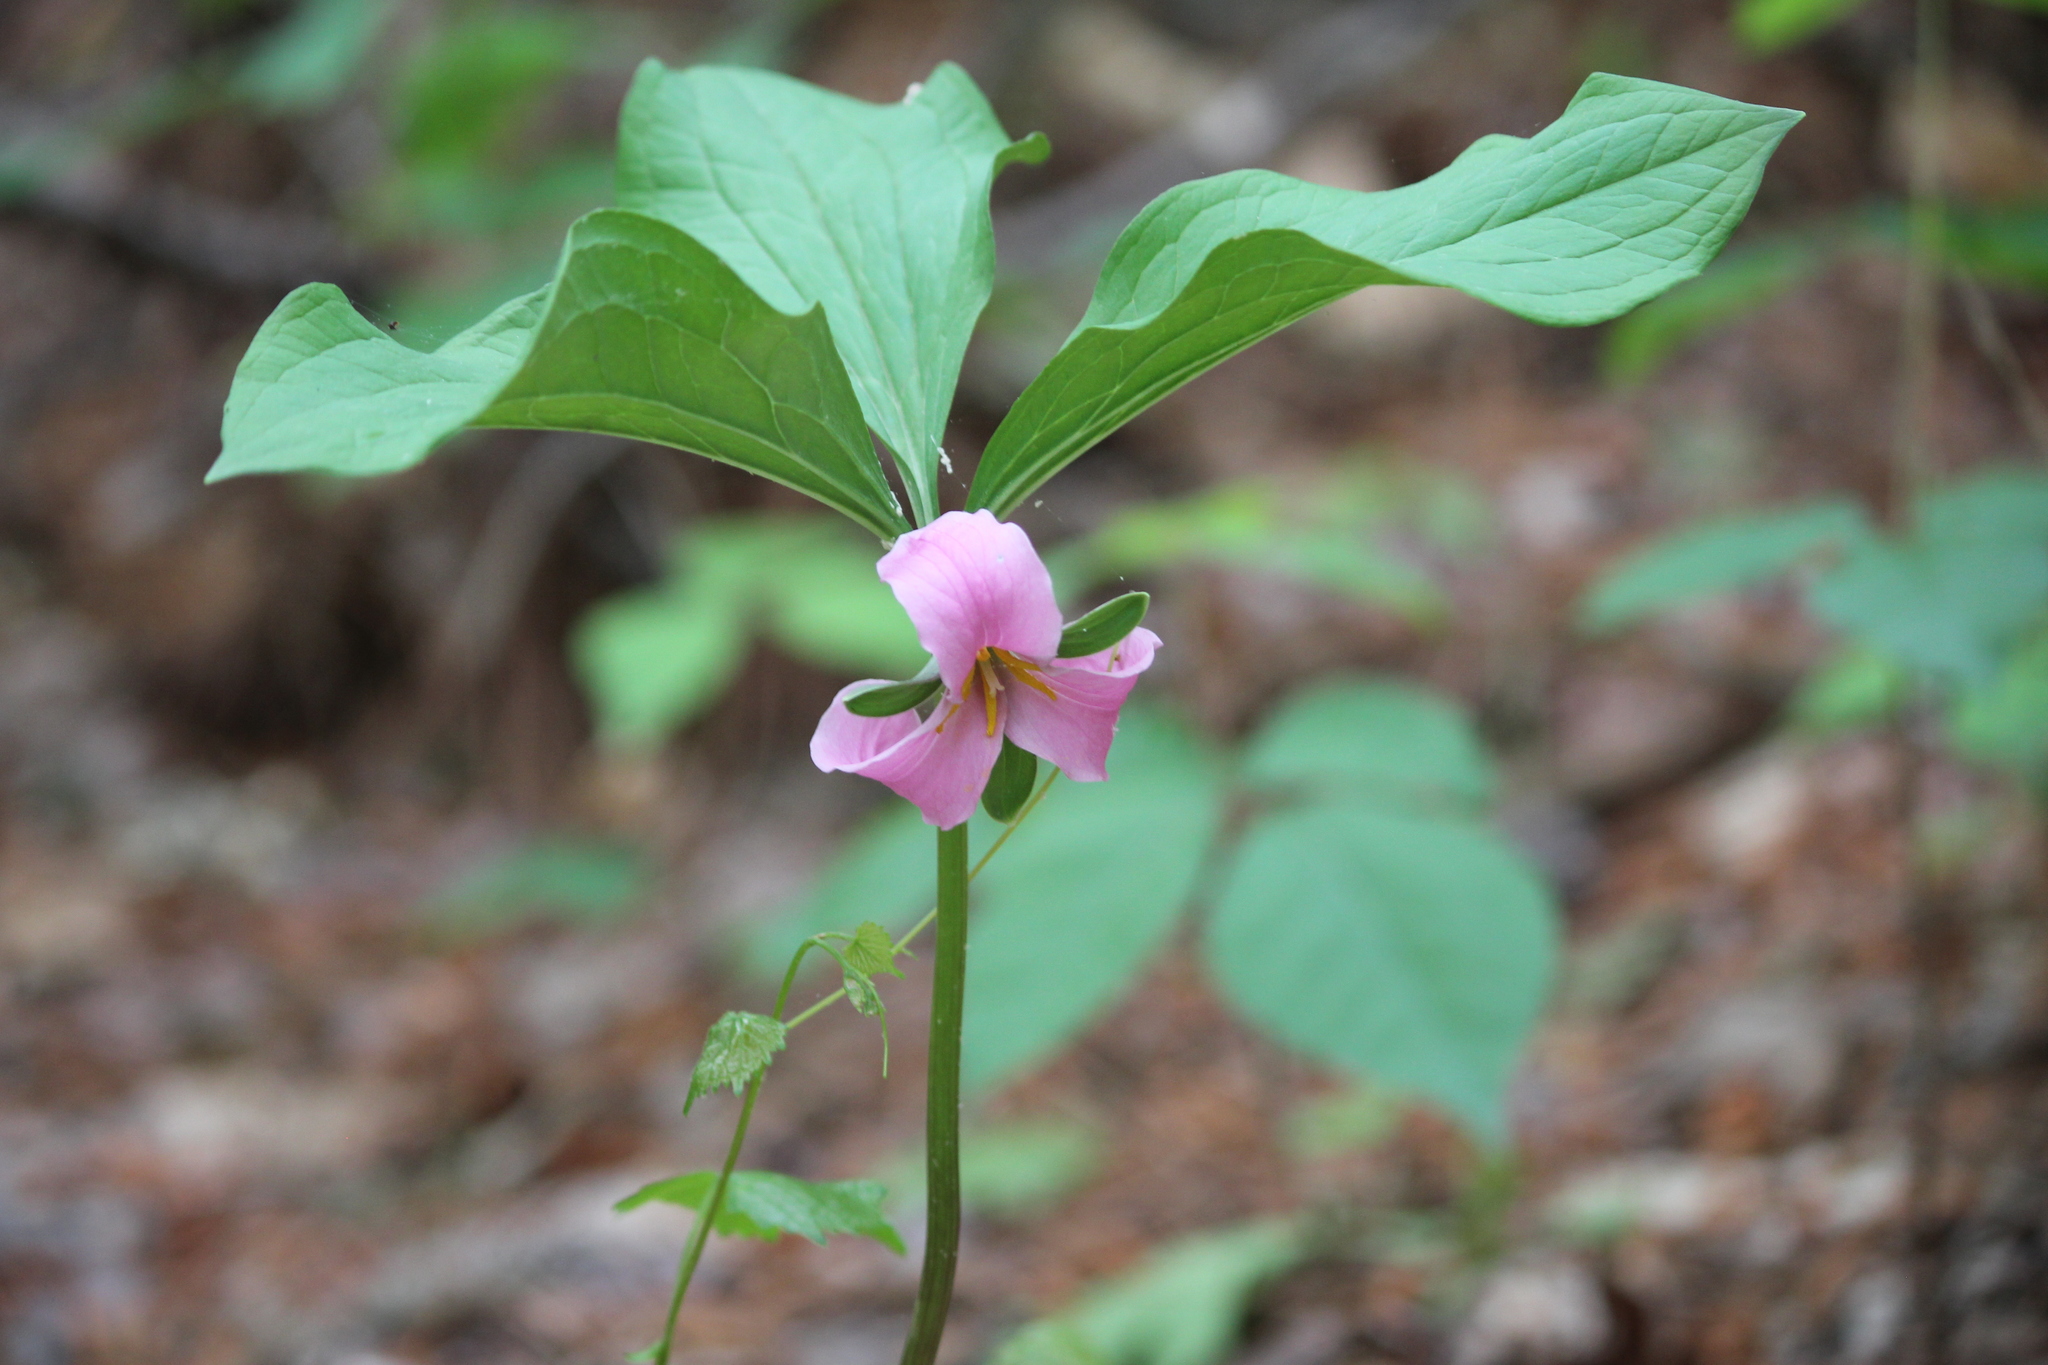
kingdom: Plantae
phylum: Tracheophyta
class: Liliopsida
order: Liliales
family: Melanthiaceae
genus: Trillium
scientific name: Trillium catesbaei
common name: Bashful trillium
